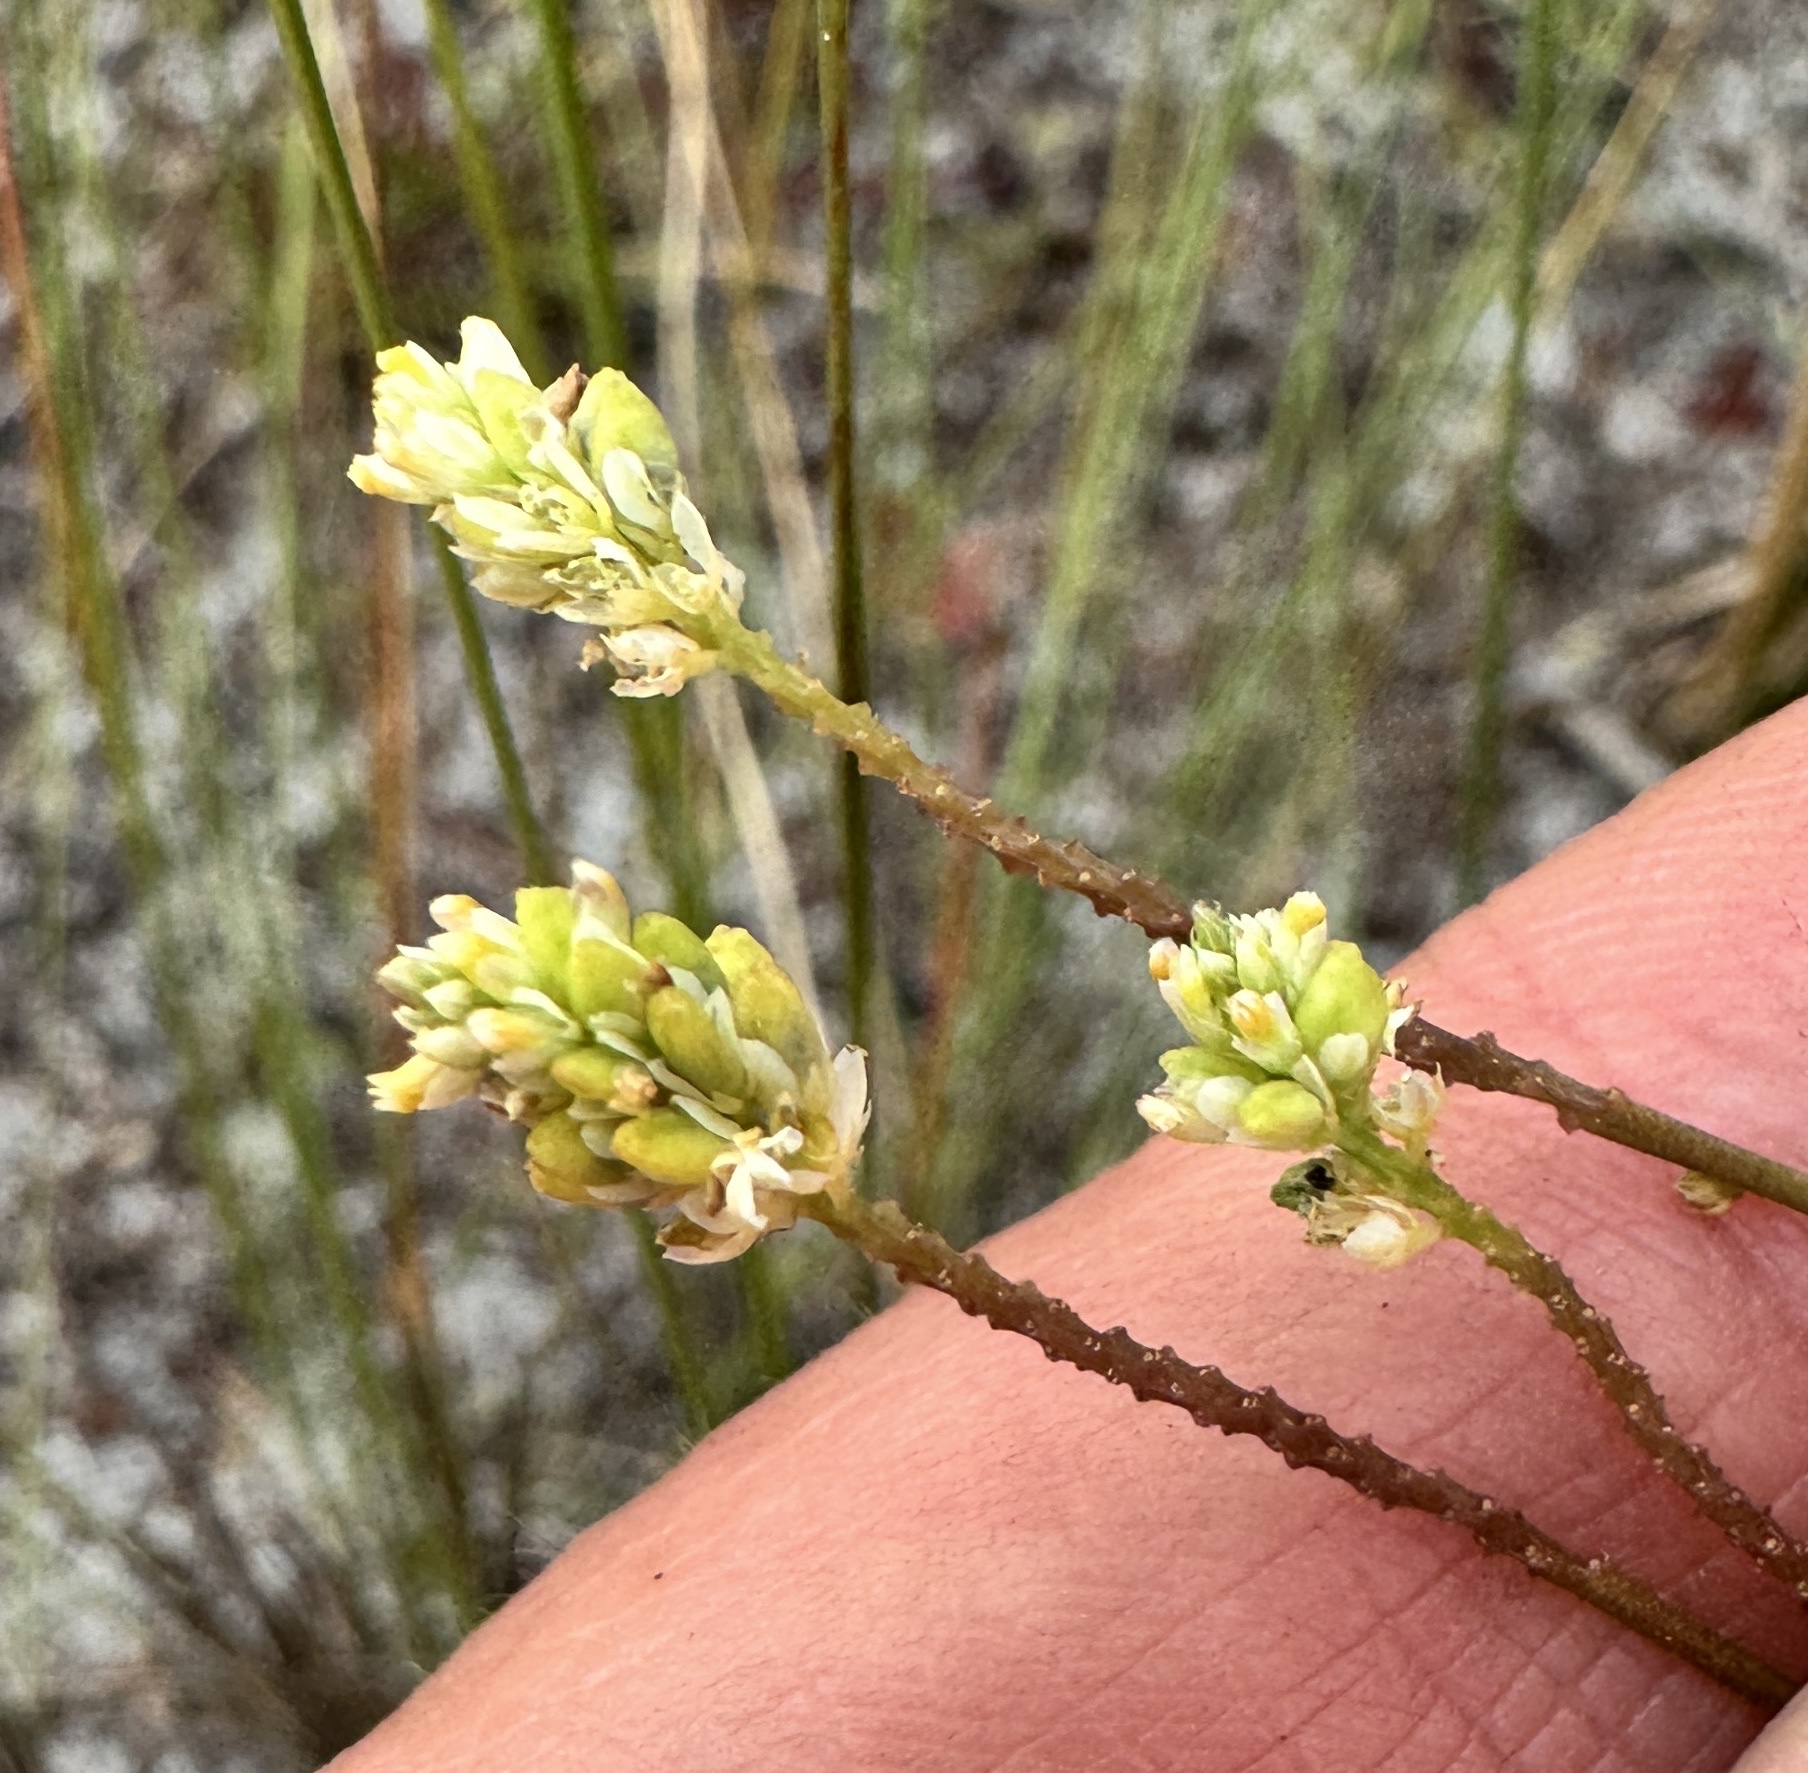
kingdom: Plantae
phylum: Tracheophyta
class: Magnoliopsida
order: Fabales
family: Polygalaceae
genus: Polygala
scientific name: Polygala setacea
